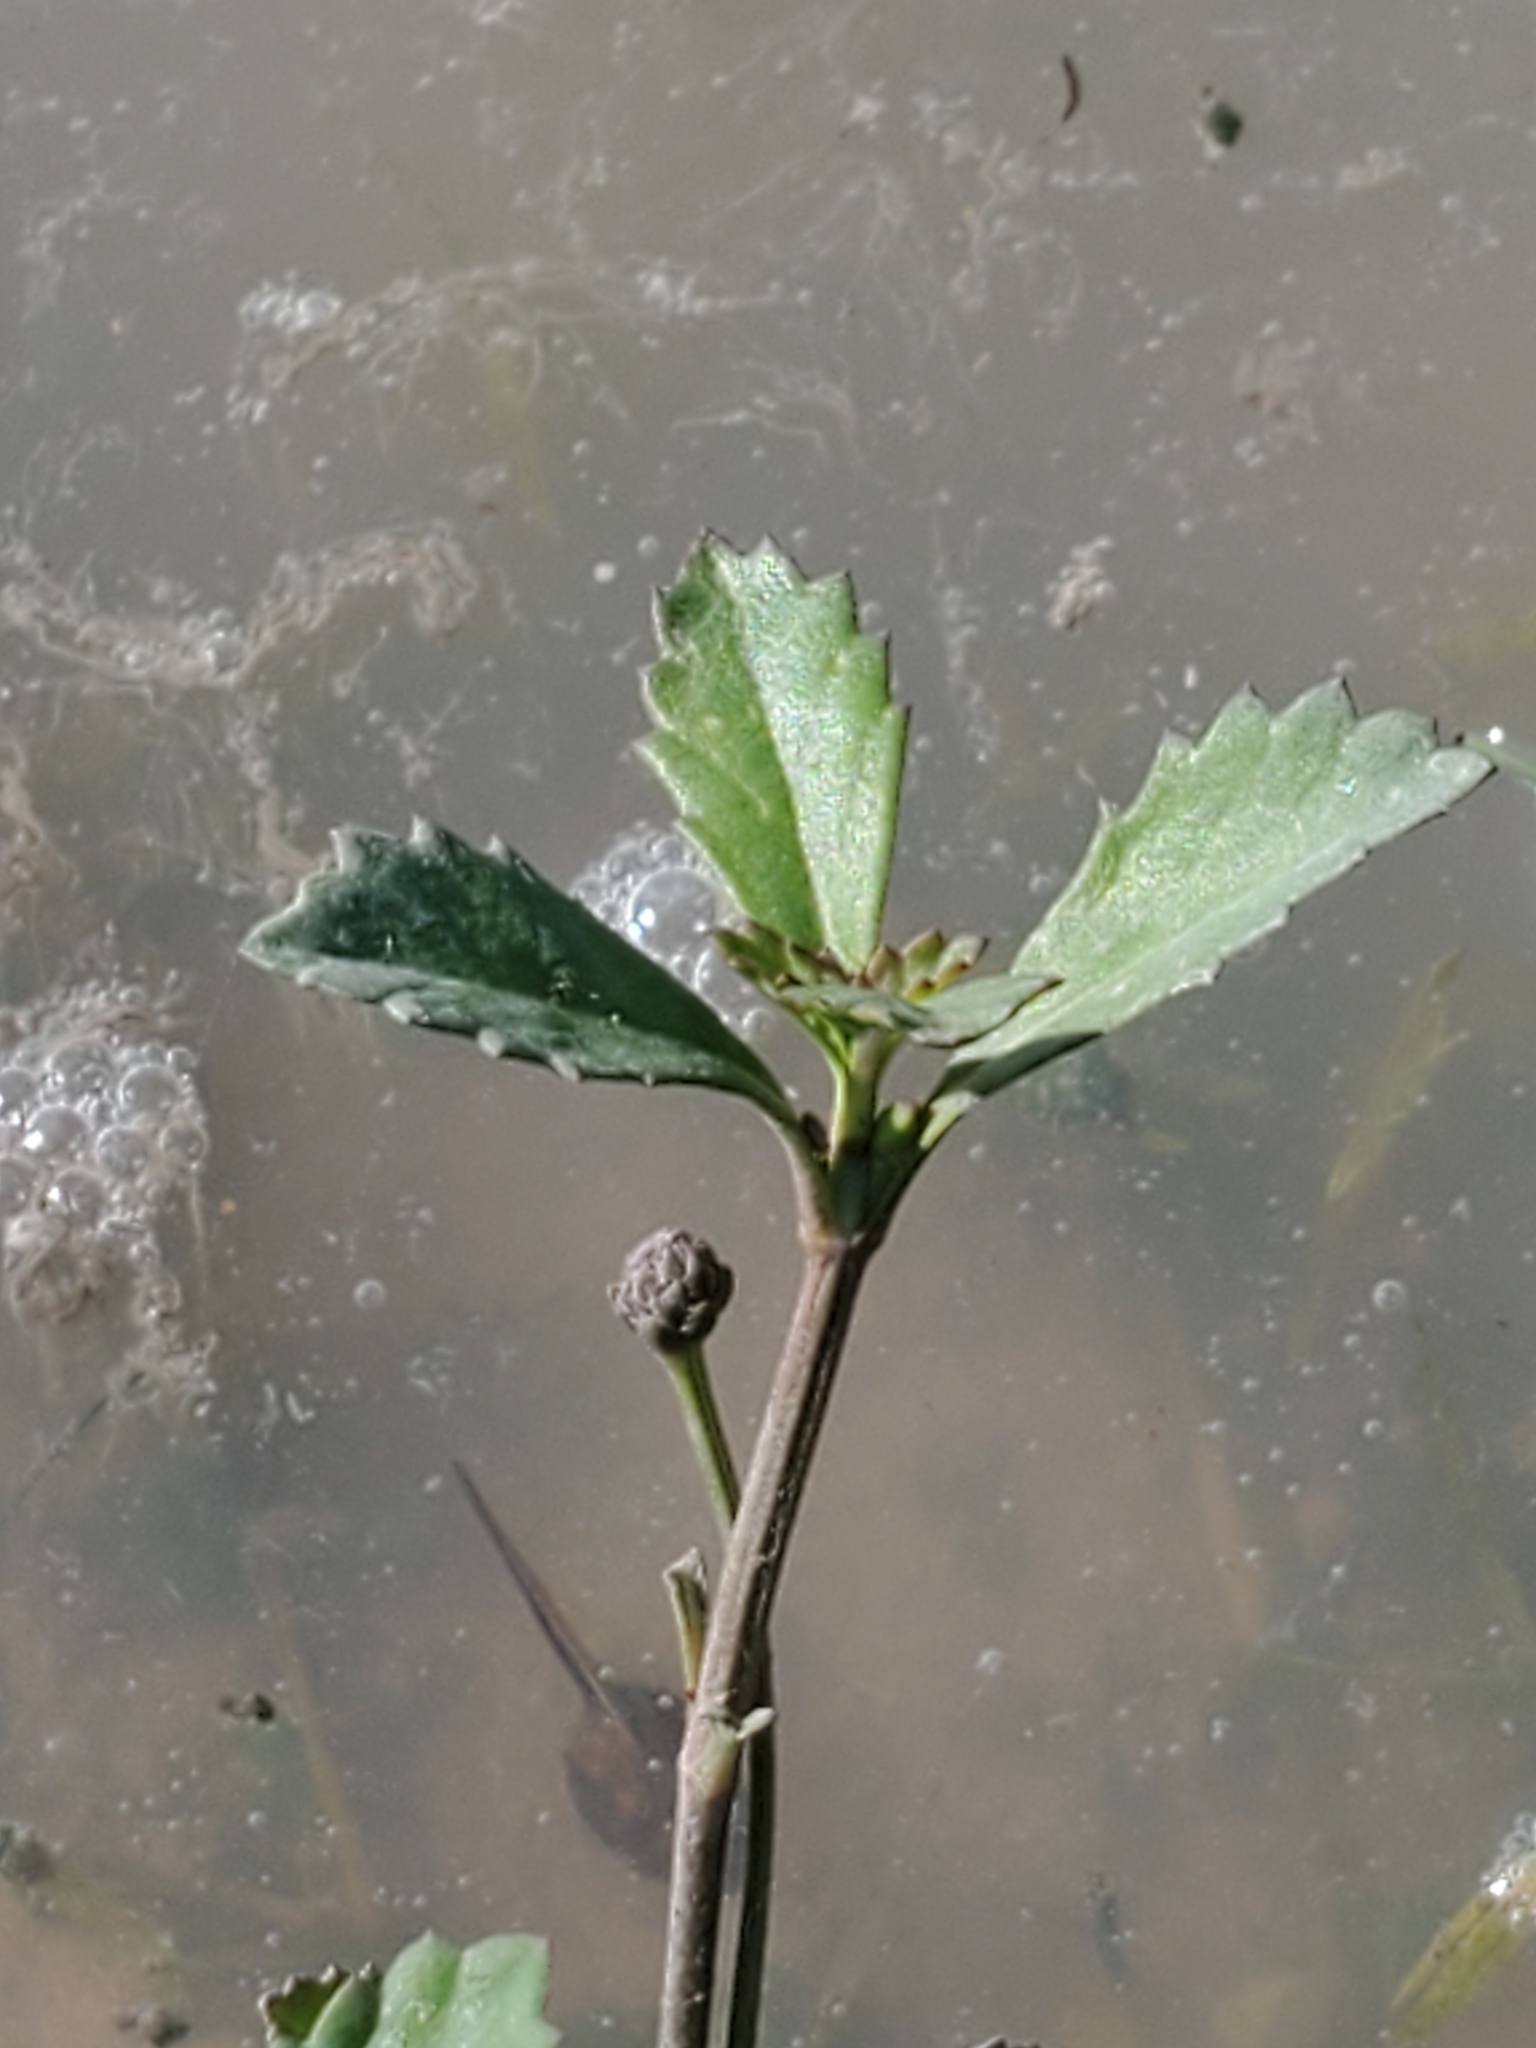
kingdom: Plantae
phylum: Tracheophyta
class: Magnoliopsida
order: Lamiales
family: Verbenaceae
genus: Phyla
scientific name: Phyla nodiflora
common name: Frogfruit
